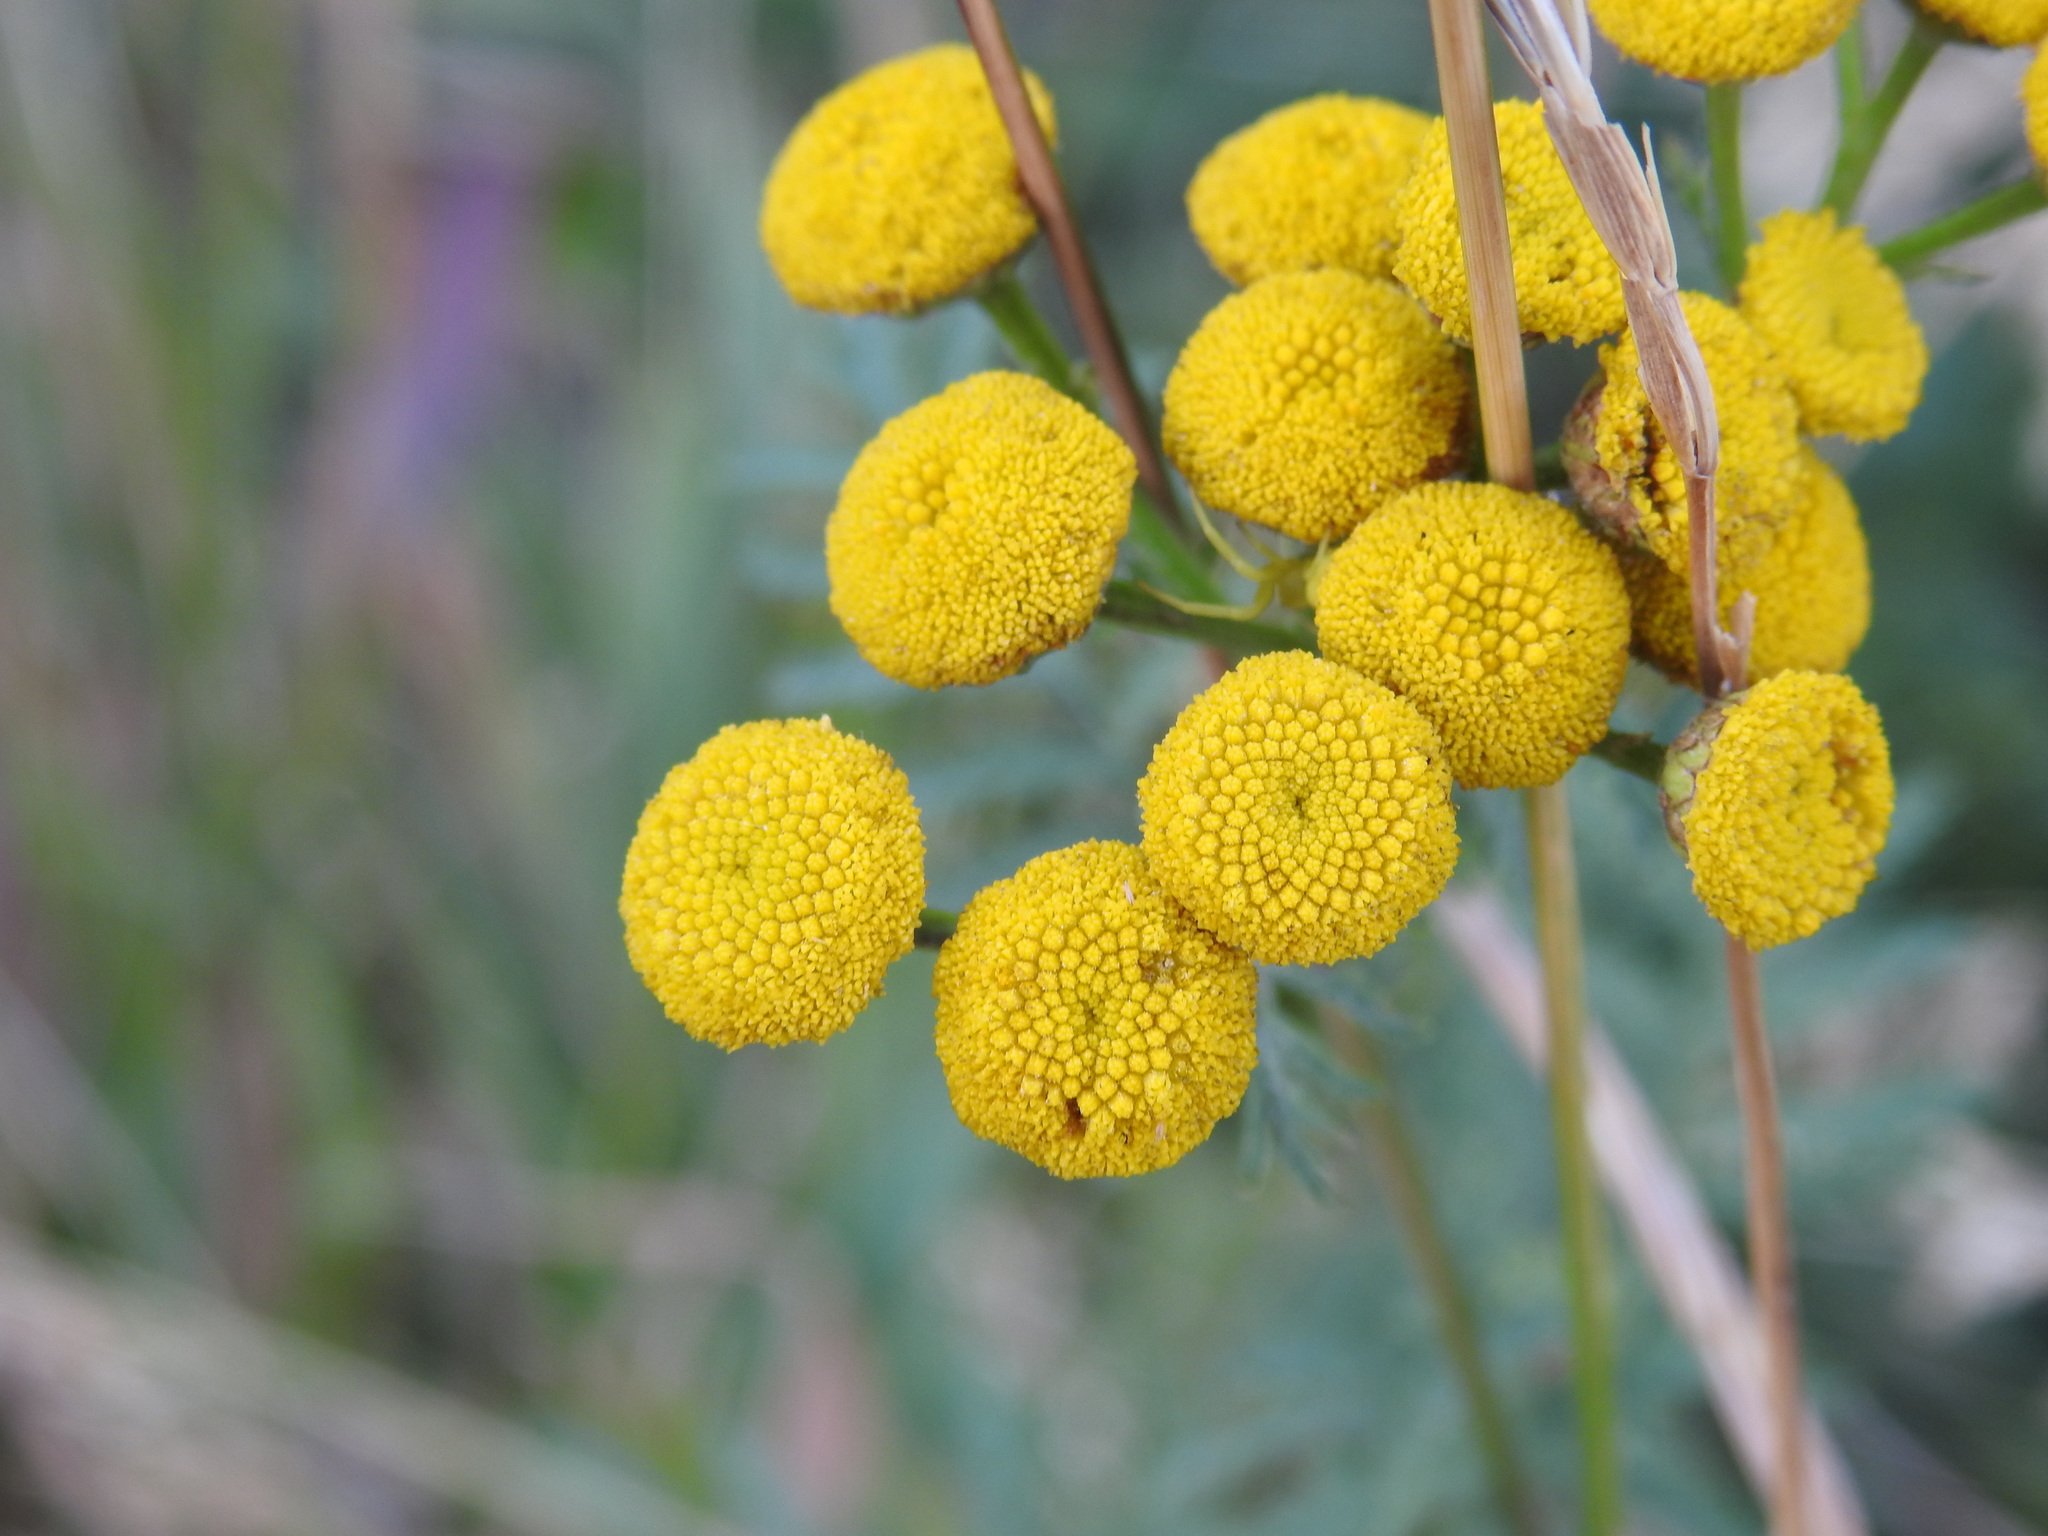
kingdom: Plantae
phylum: Tracheophyta
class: Magnoliopsida
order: Asterales
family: Asteraceae
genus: Tanacetum
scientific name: Tanacetum vulgare
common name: Common tansy
